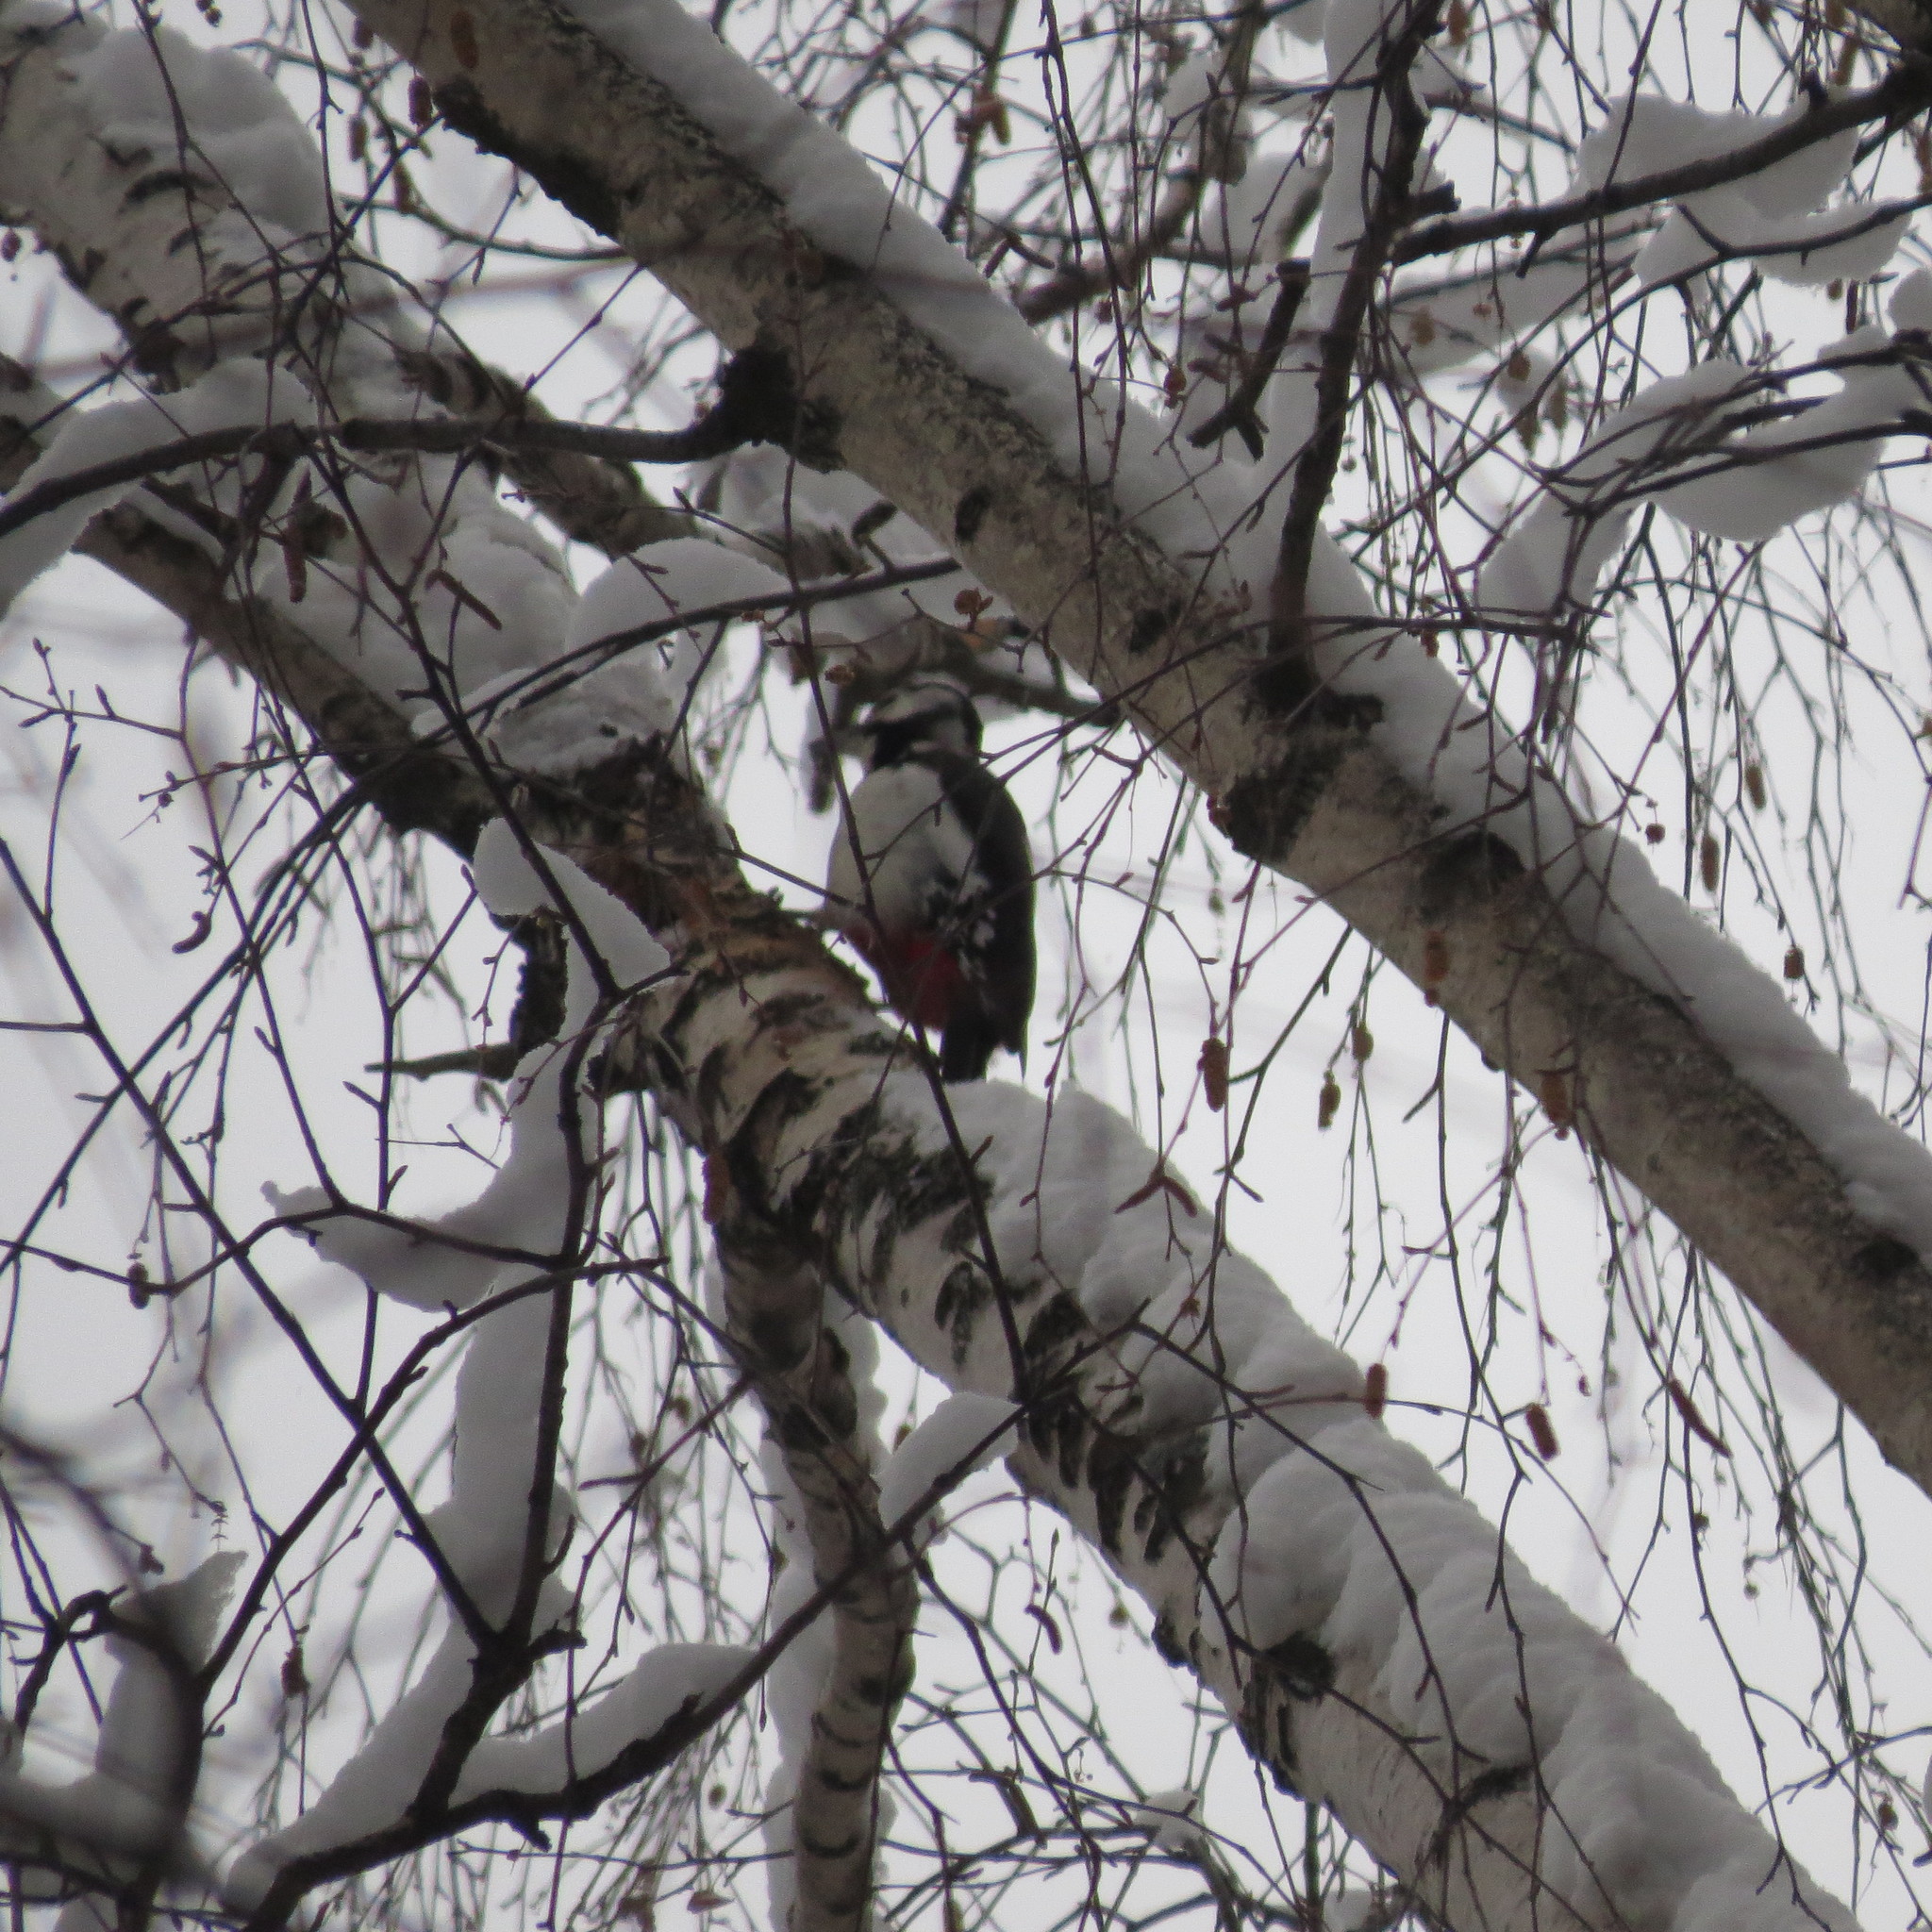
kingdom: Animalia
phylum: Chordata
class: Aves
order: Piciformes
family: Picidae
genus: Dendrocopos
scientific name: Dendrocopos major
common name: Great spotted woodpecker
